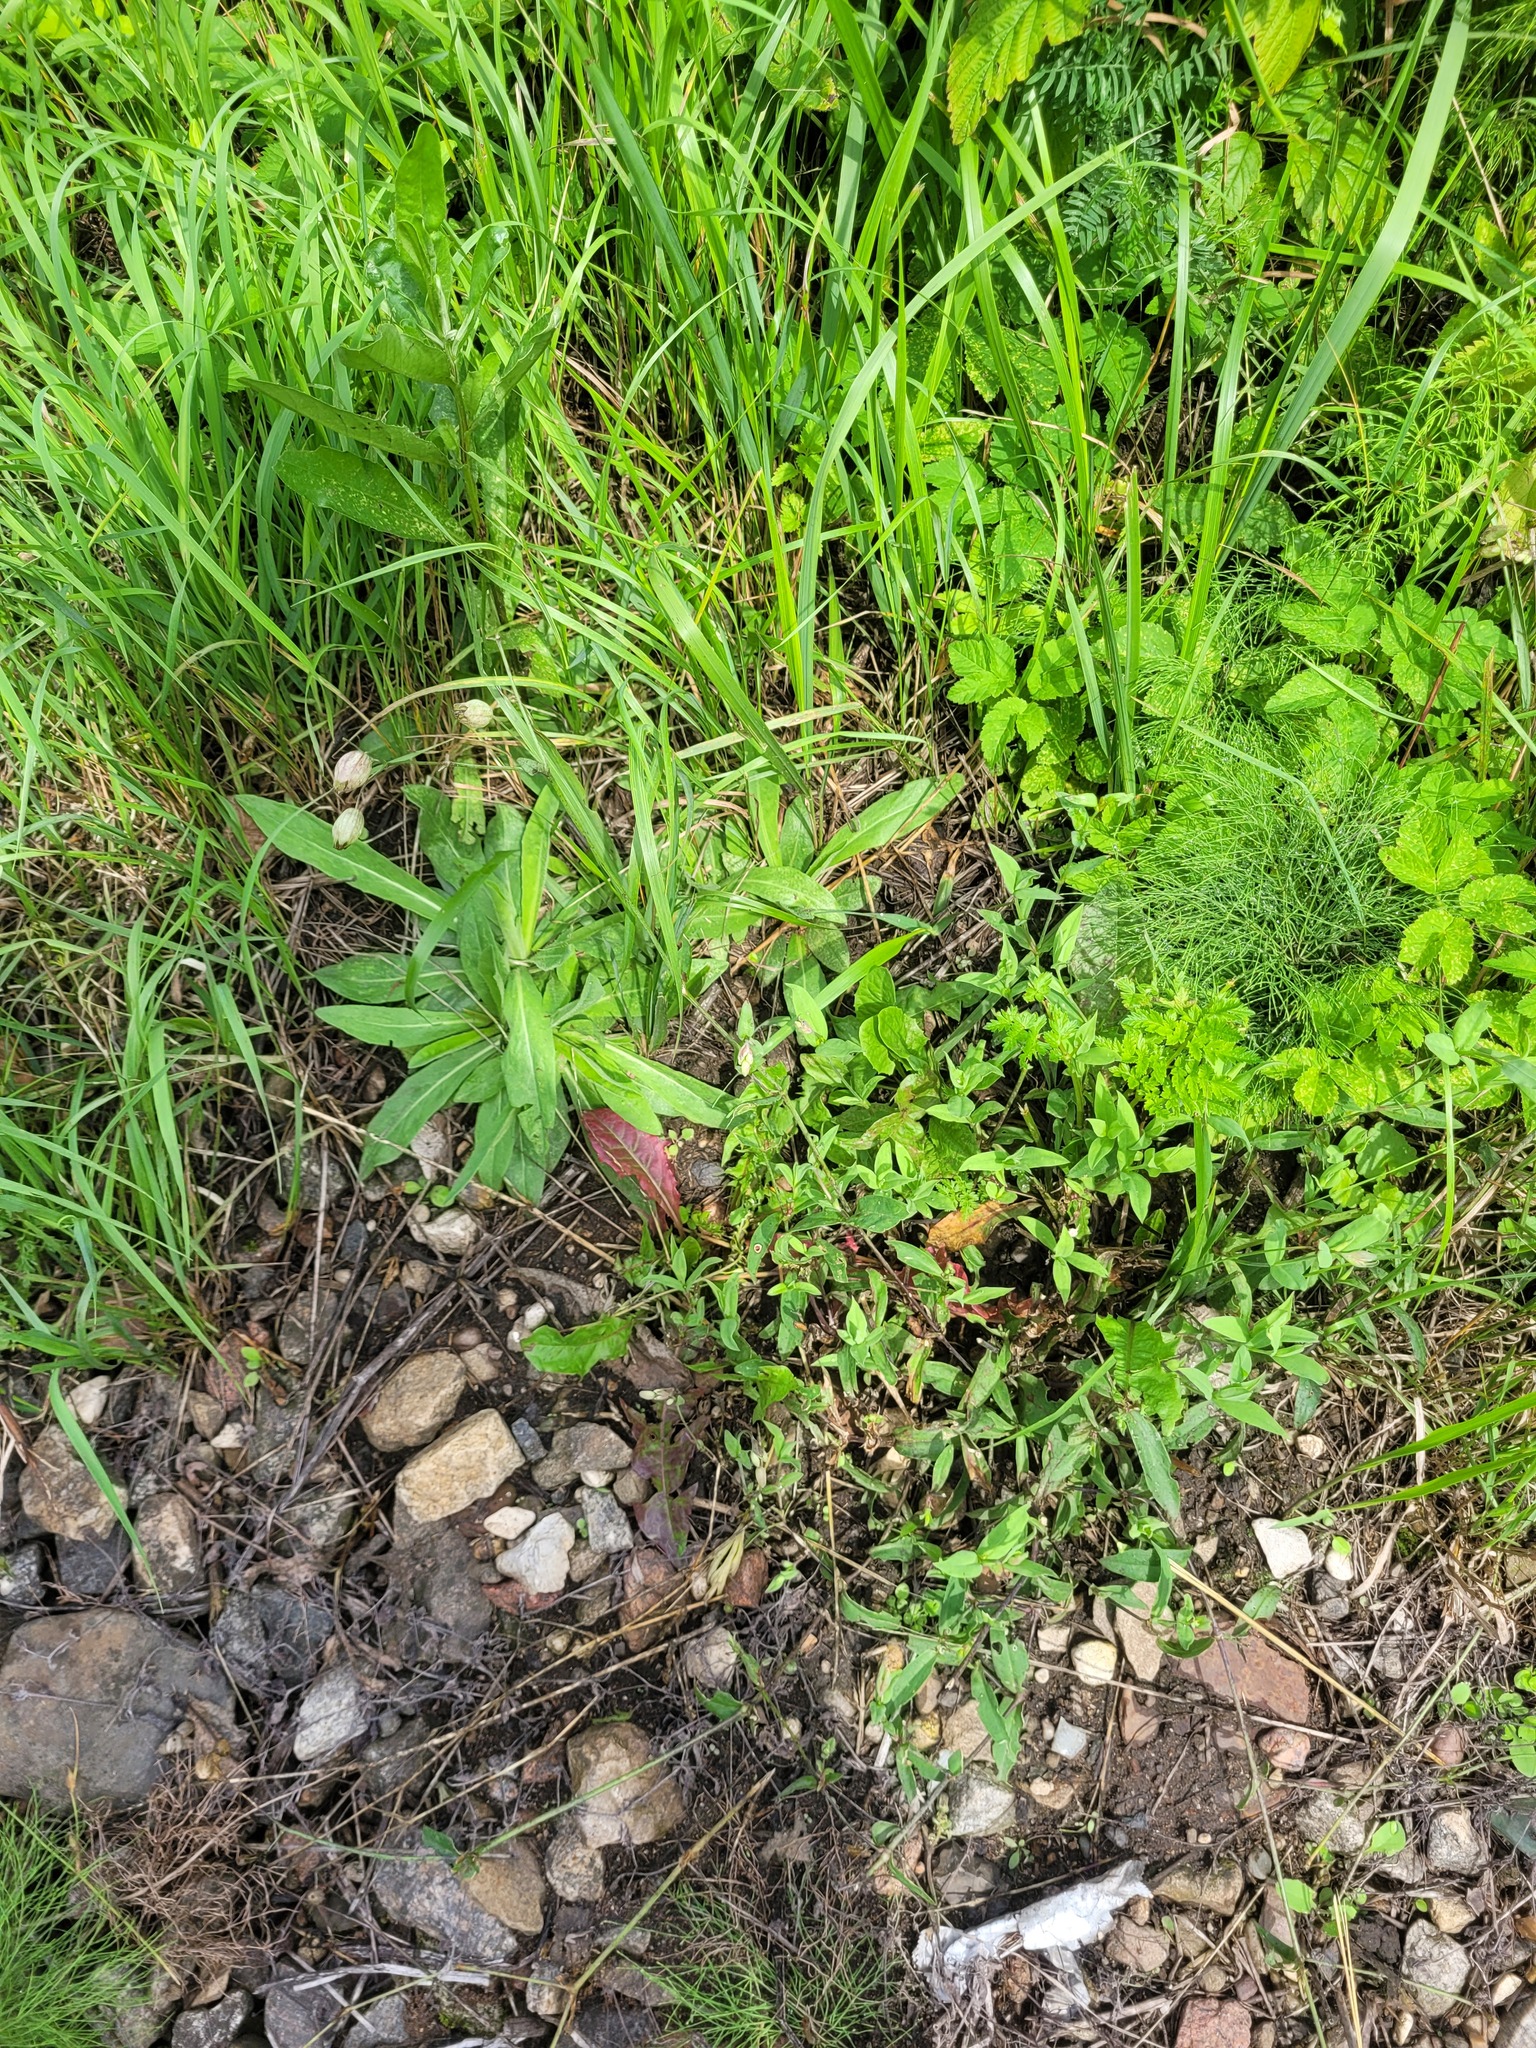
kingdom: Plantae
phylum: Tracheophyta
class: Magnoliopsida
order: Caryophyllales
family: Caryophyllaceae
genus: Silene
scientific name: Silene vulgaris
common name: Bladder campion
